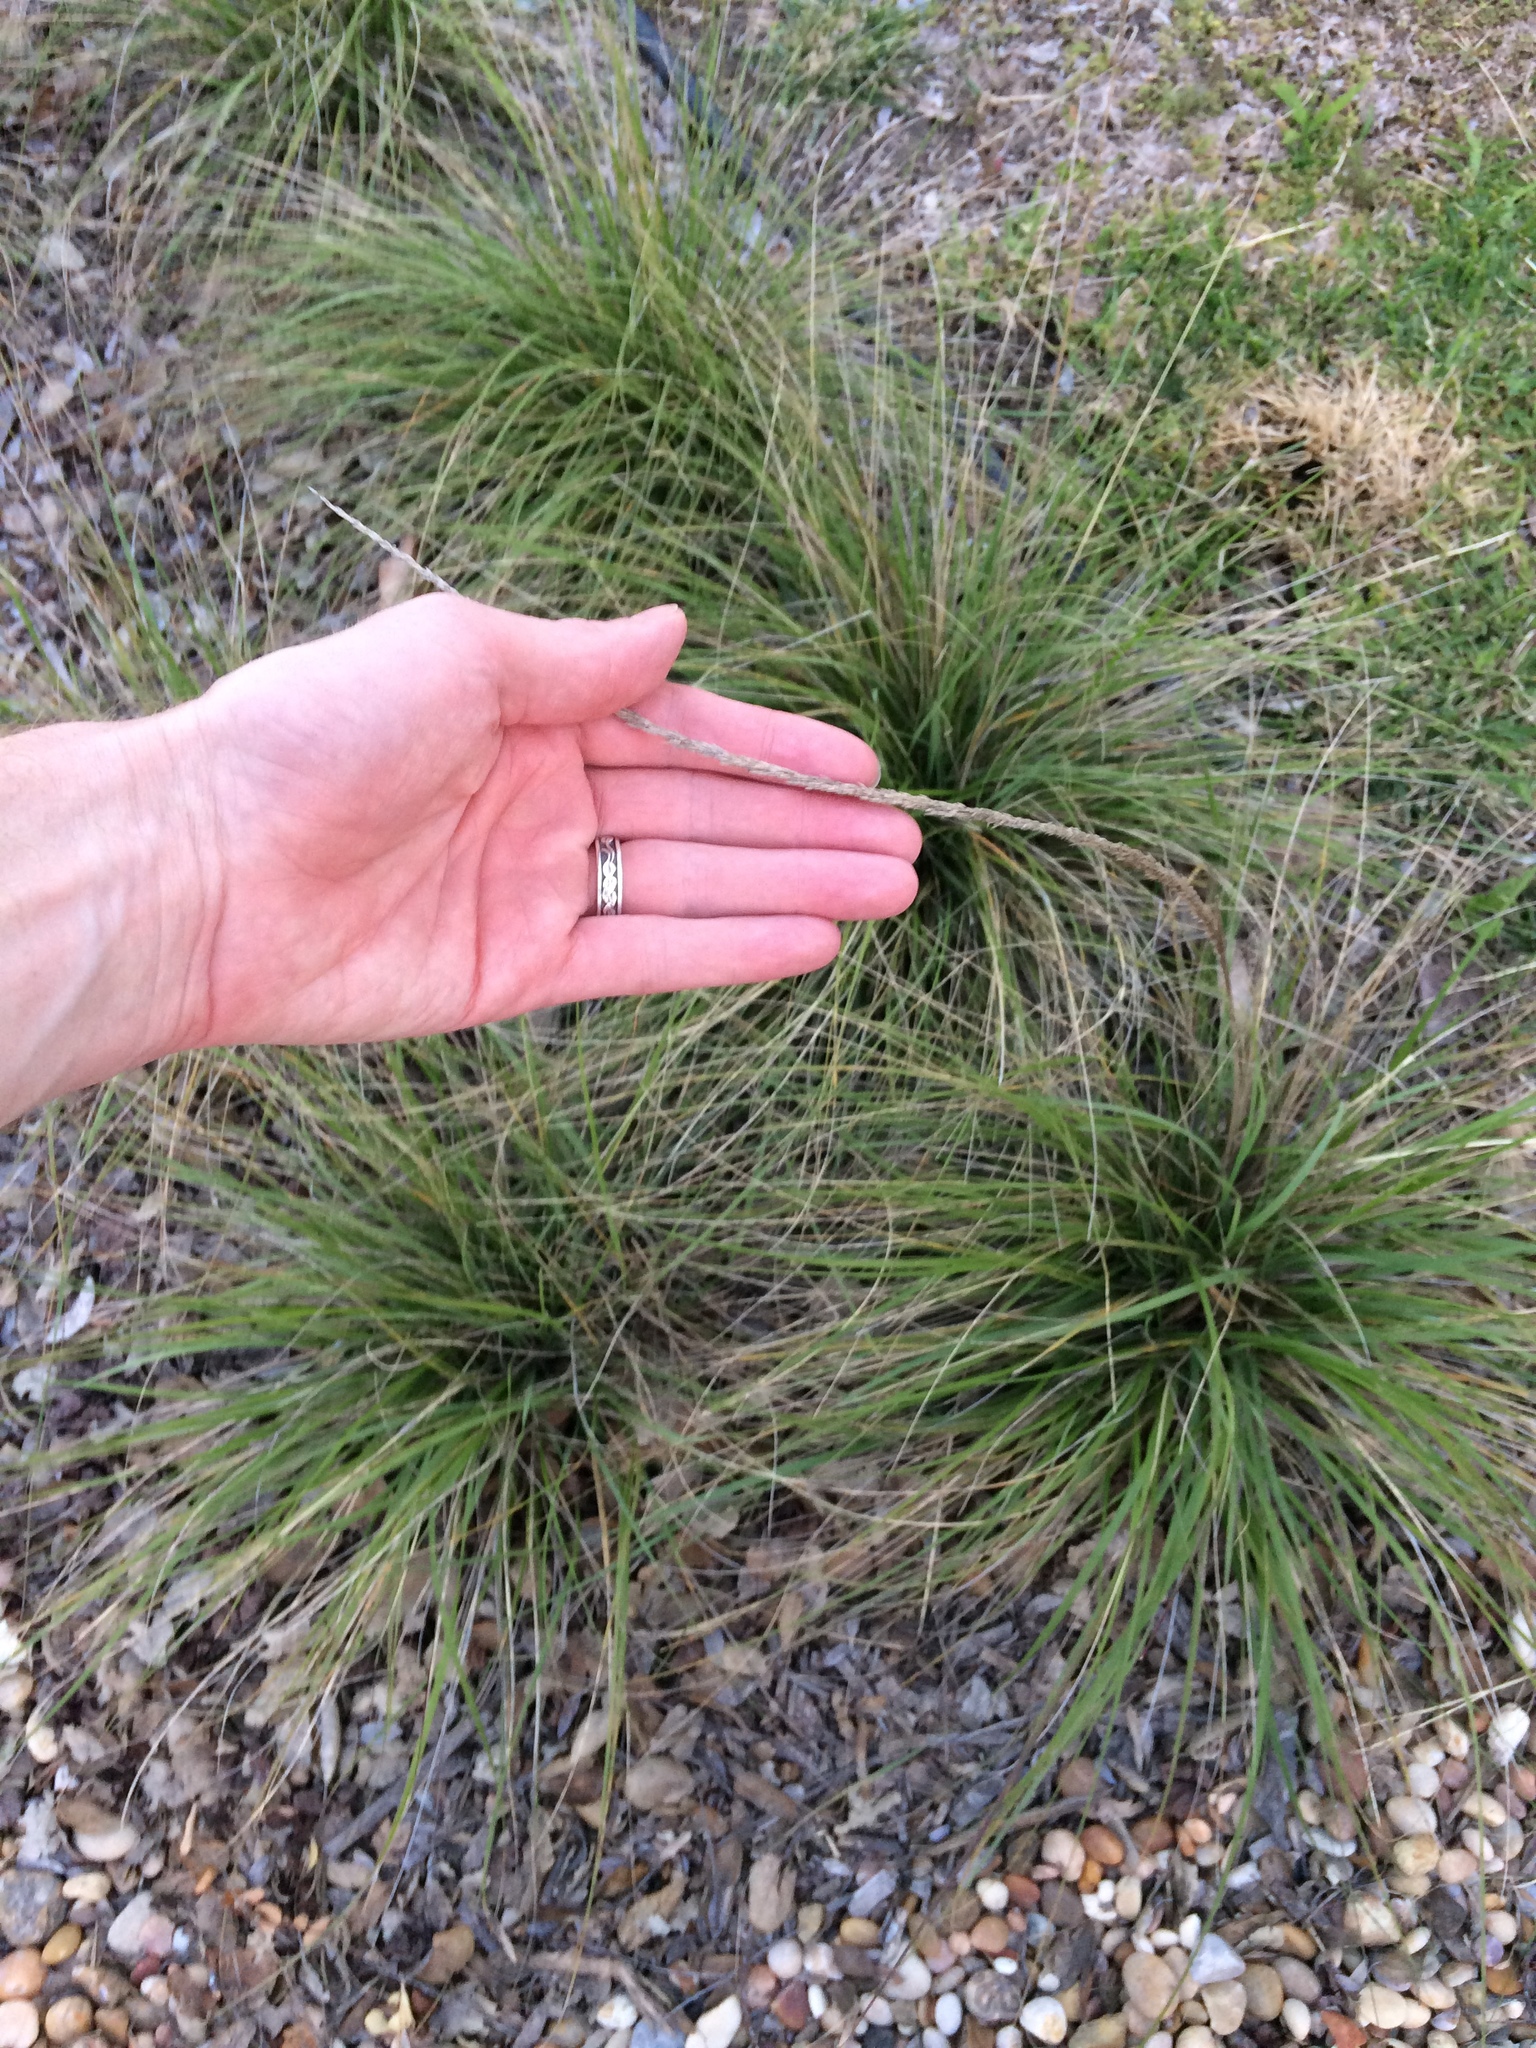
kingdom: Plantae
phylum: Tracheophyta
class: Liliopsida
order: Poales
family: Poaceae
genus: Muhlenbergia
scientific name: Muhlenbergia rigens
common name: Deer grass
